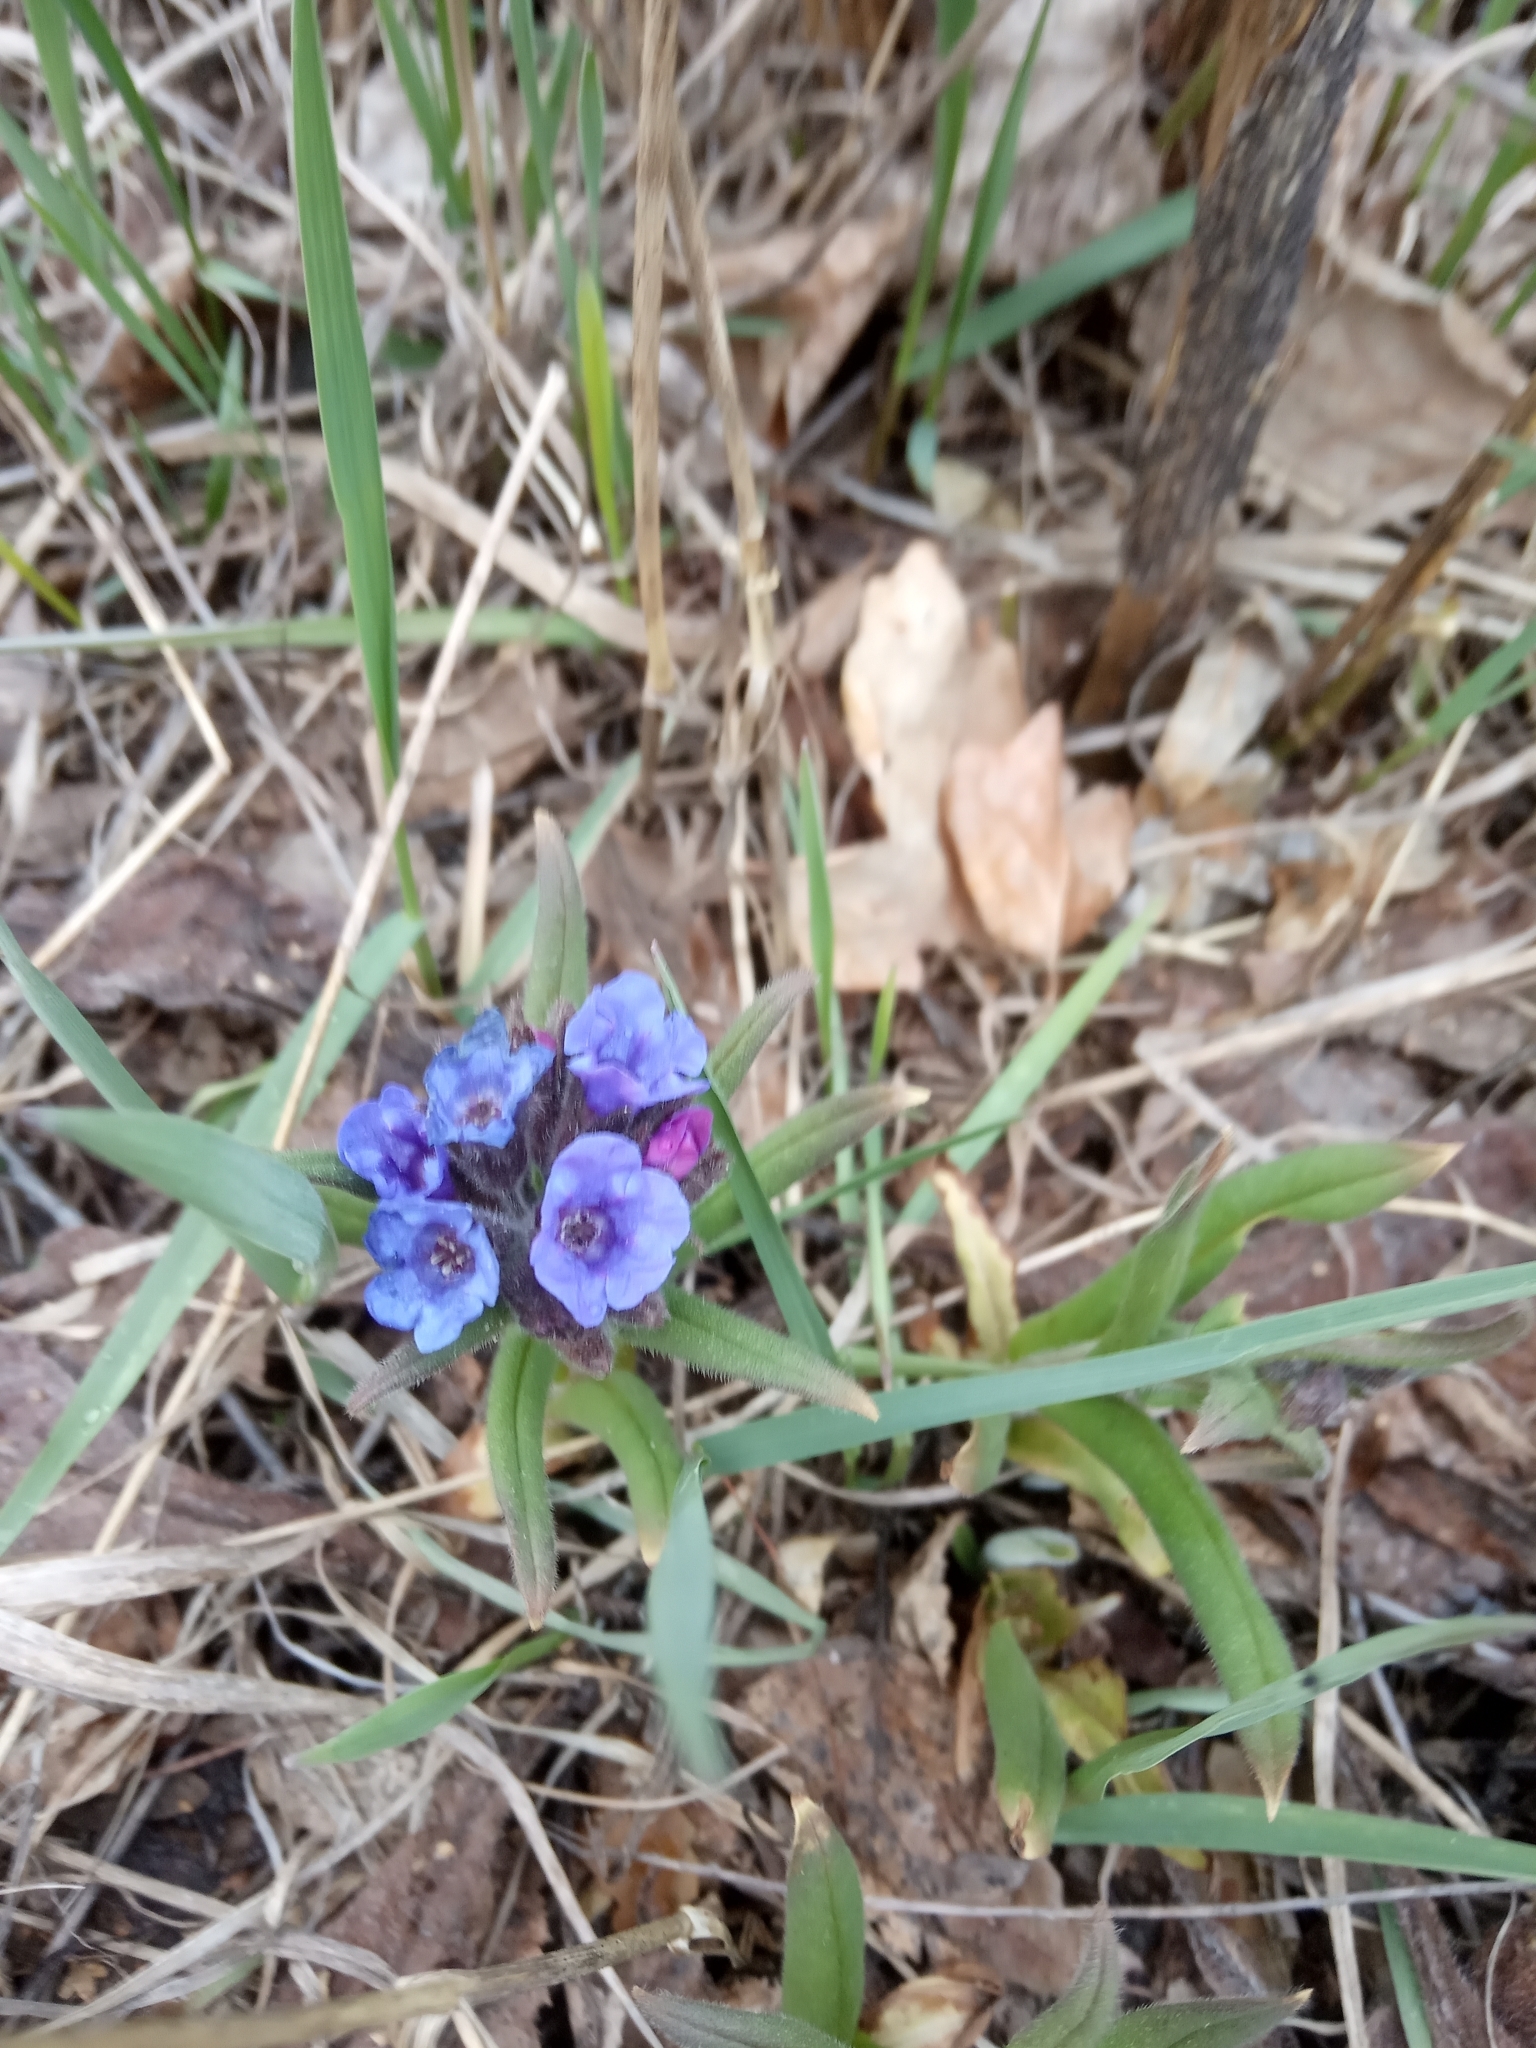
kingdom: Plantae
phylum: Tracheophyta
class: Magnoliopsida
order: Boraginales
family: Boraginaceae
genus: Pulmonaria
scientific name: Pulmonaria obscura
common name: Suffolk lungwort
